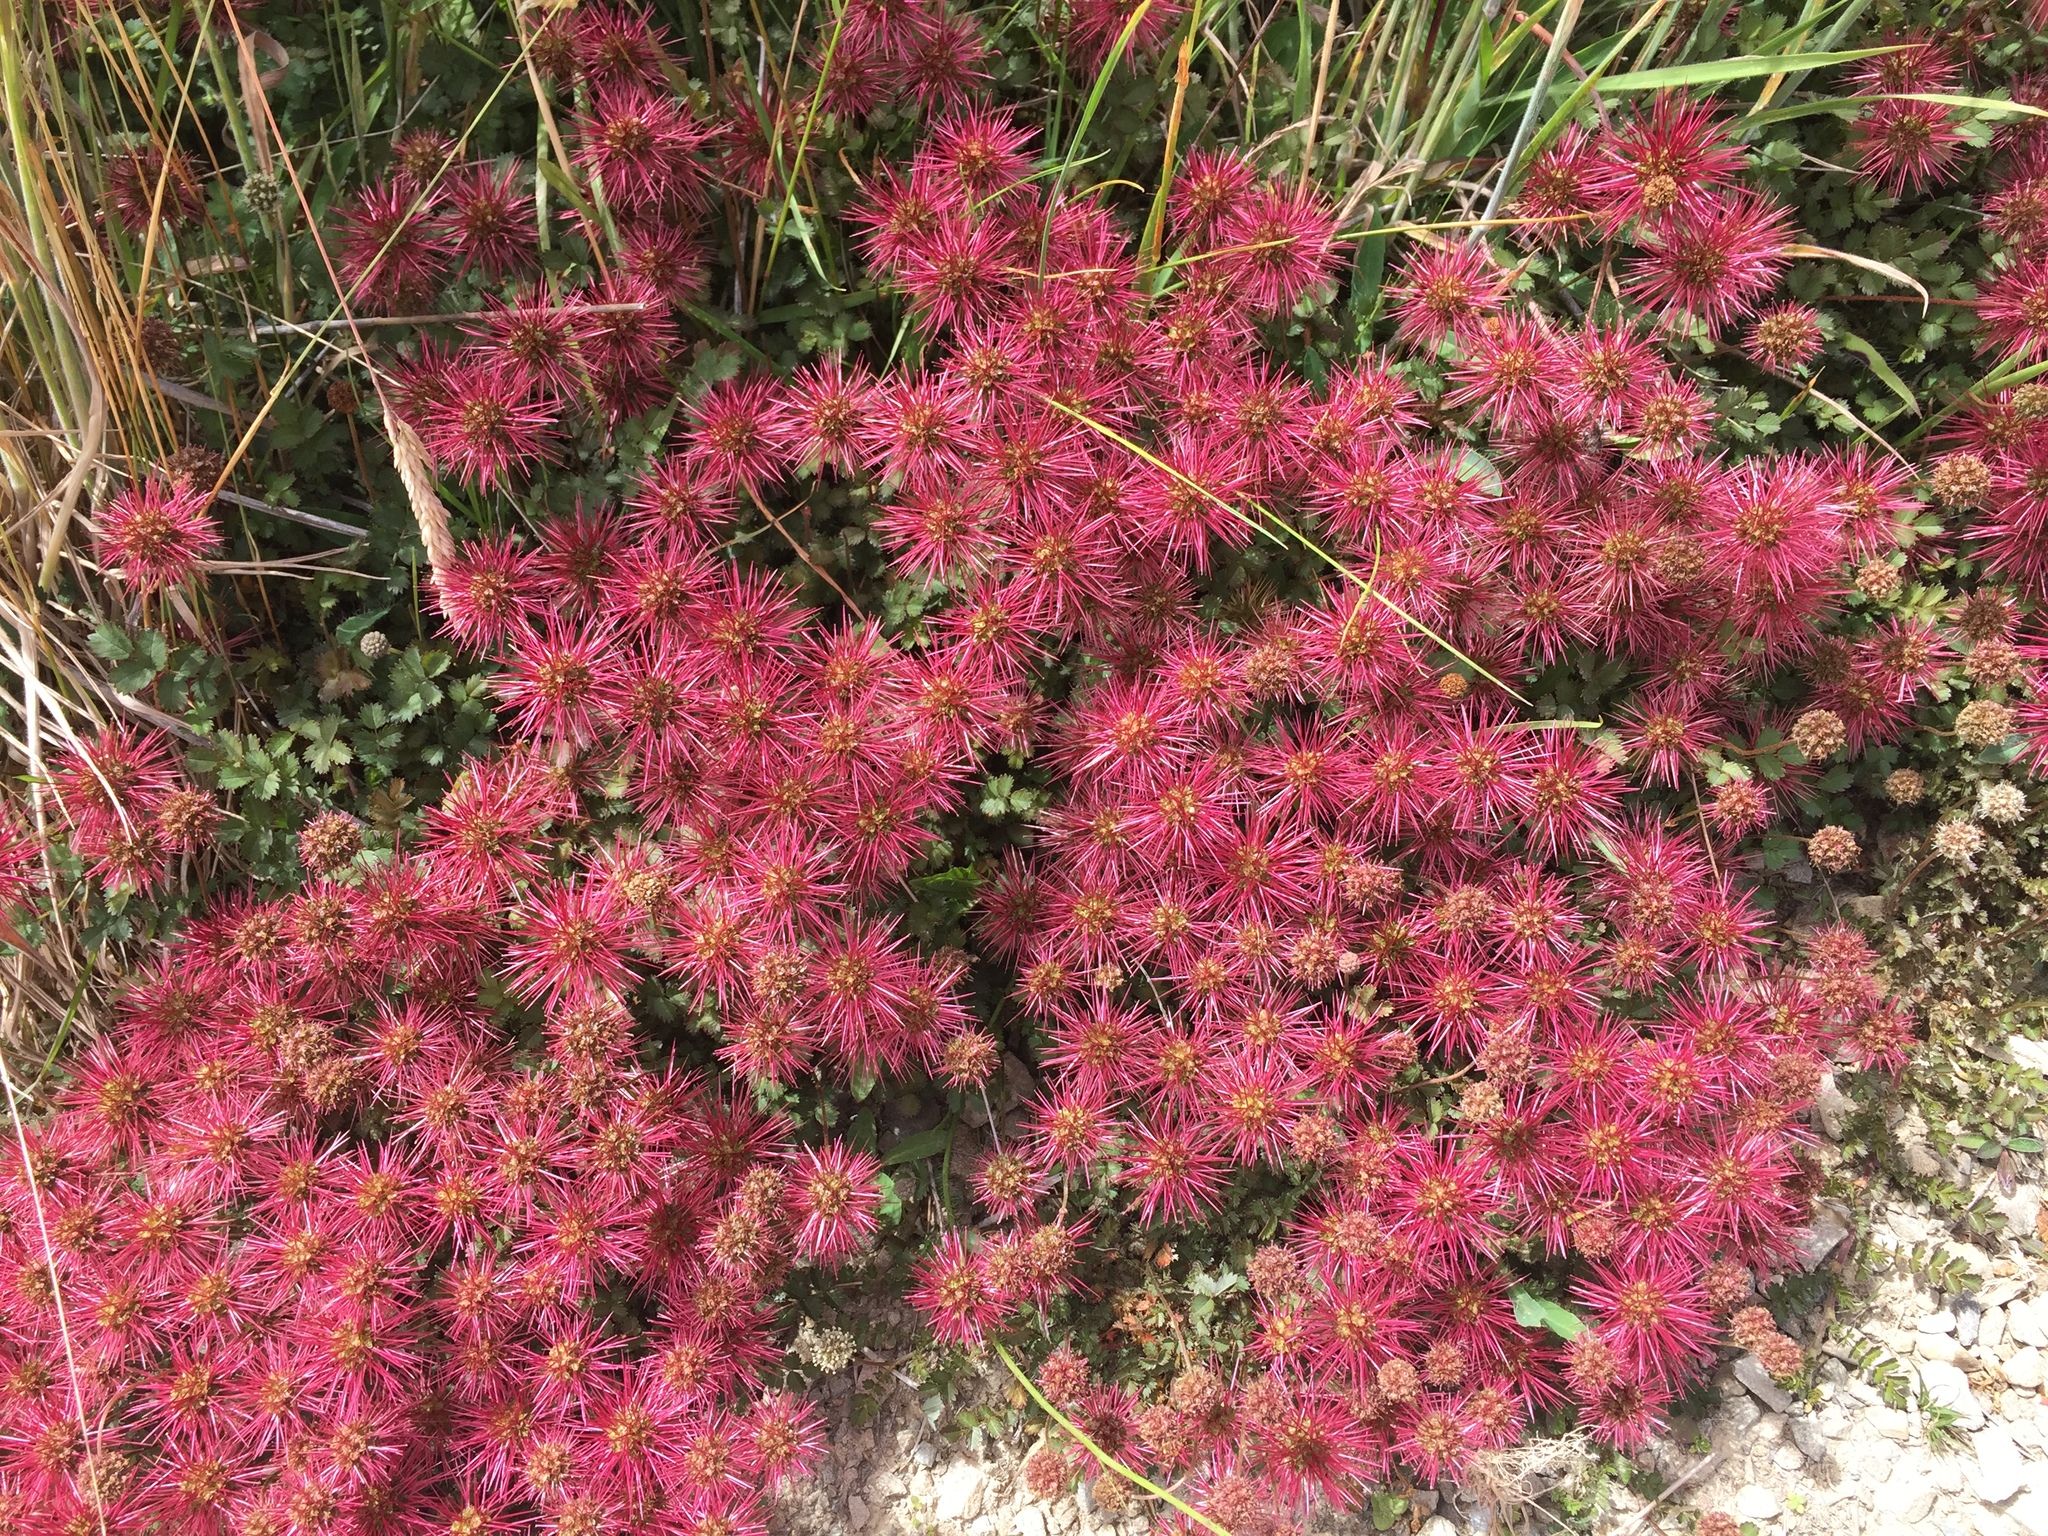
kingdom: Plantae
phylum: Tracheophyta
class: Magnoliopsida
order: Rosales
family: Rosaceae
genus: Acaena
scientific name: Acaena microphylla
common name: New zealand-bur
